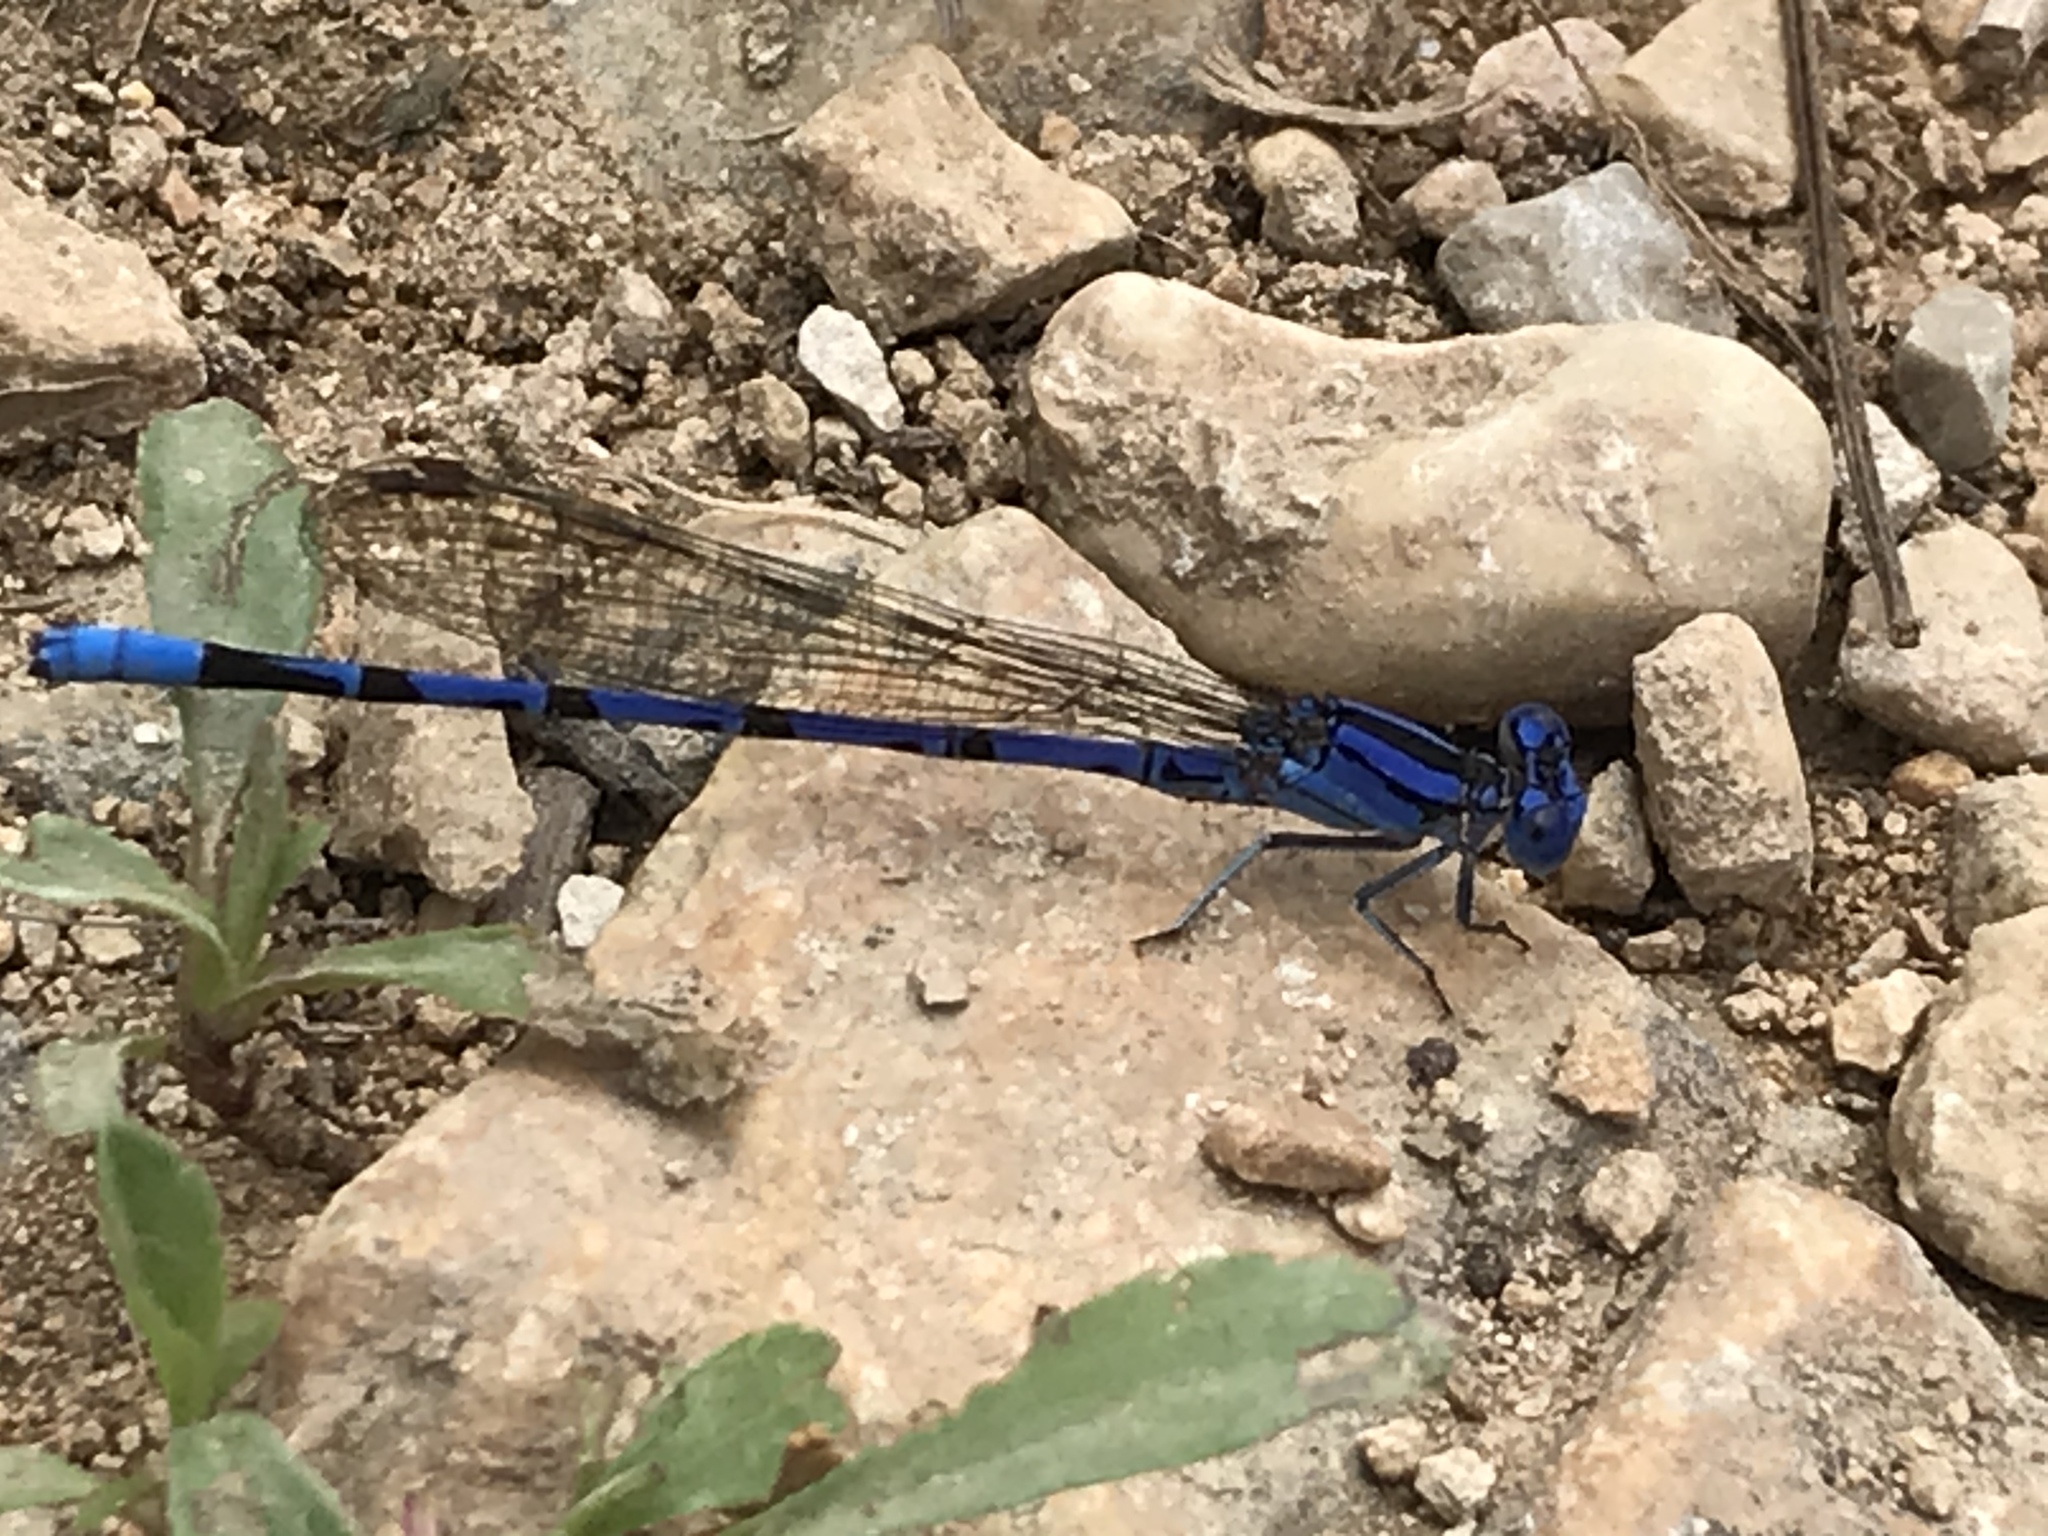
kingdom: Animalia
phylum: Arthropoda
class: Insecta
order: Odonata
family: Coenagrionidae
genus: Argia
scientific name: Argia funebris
